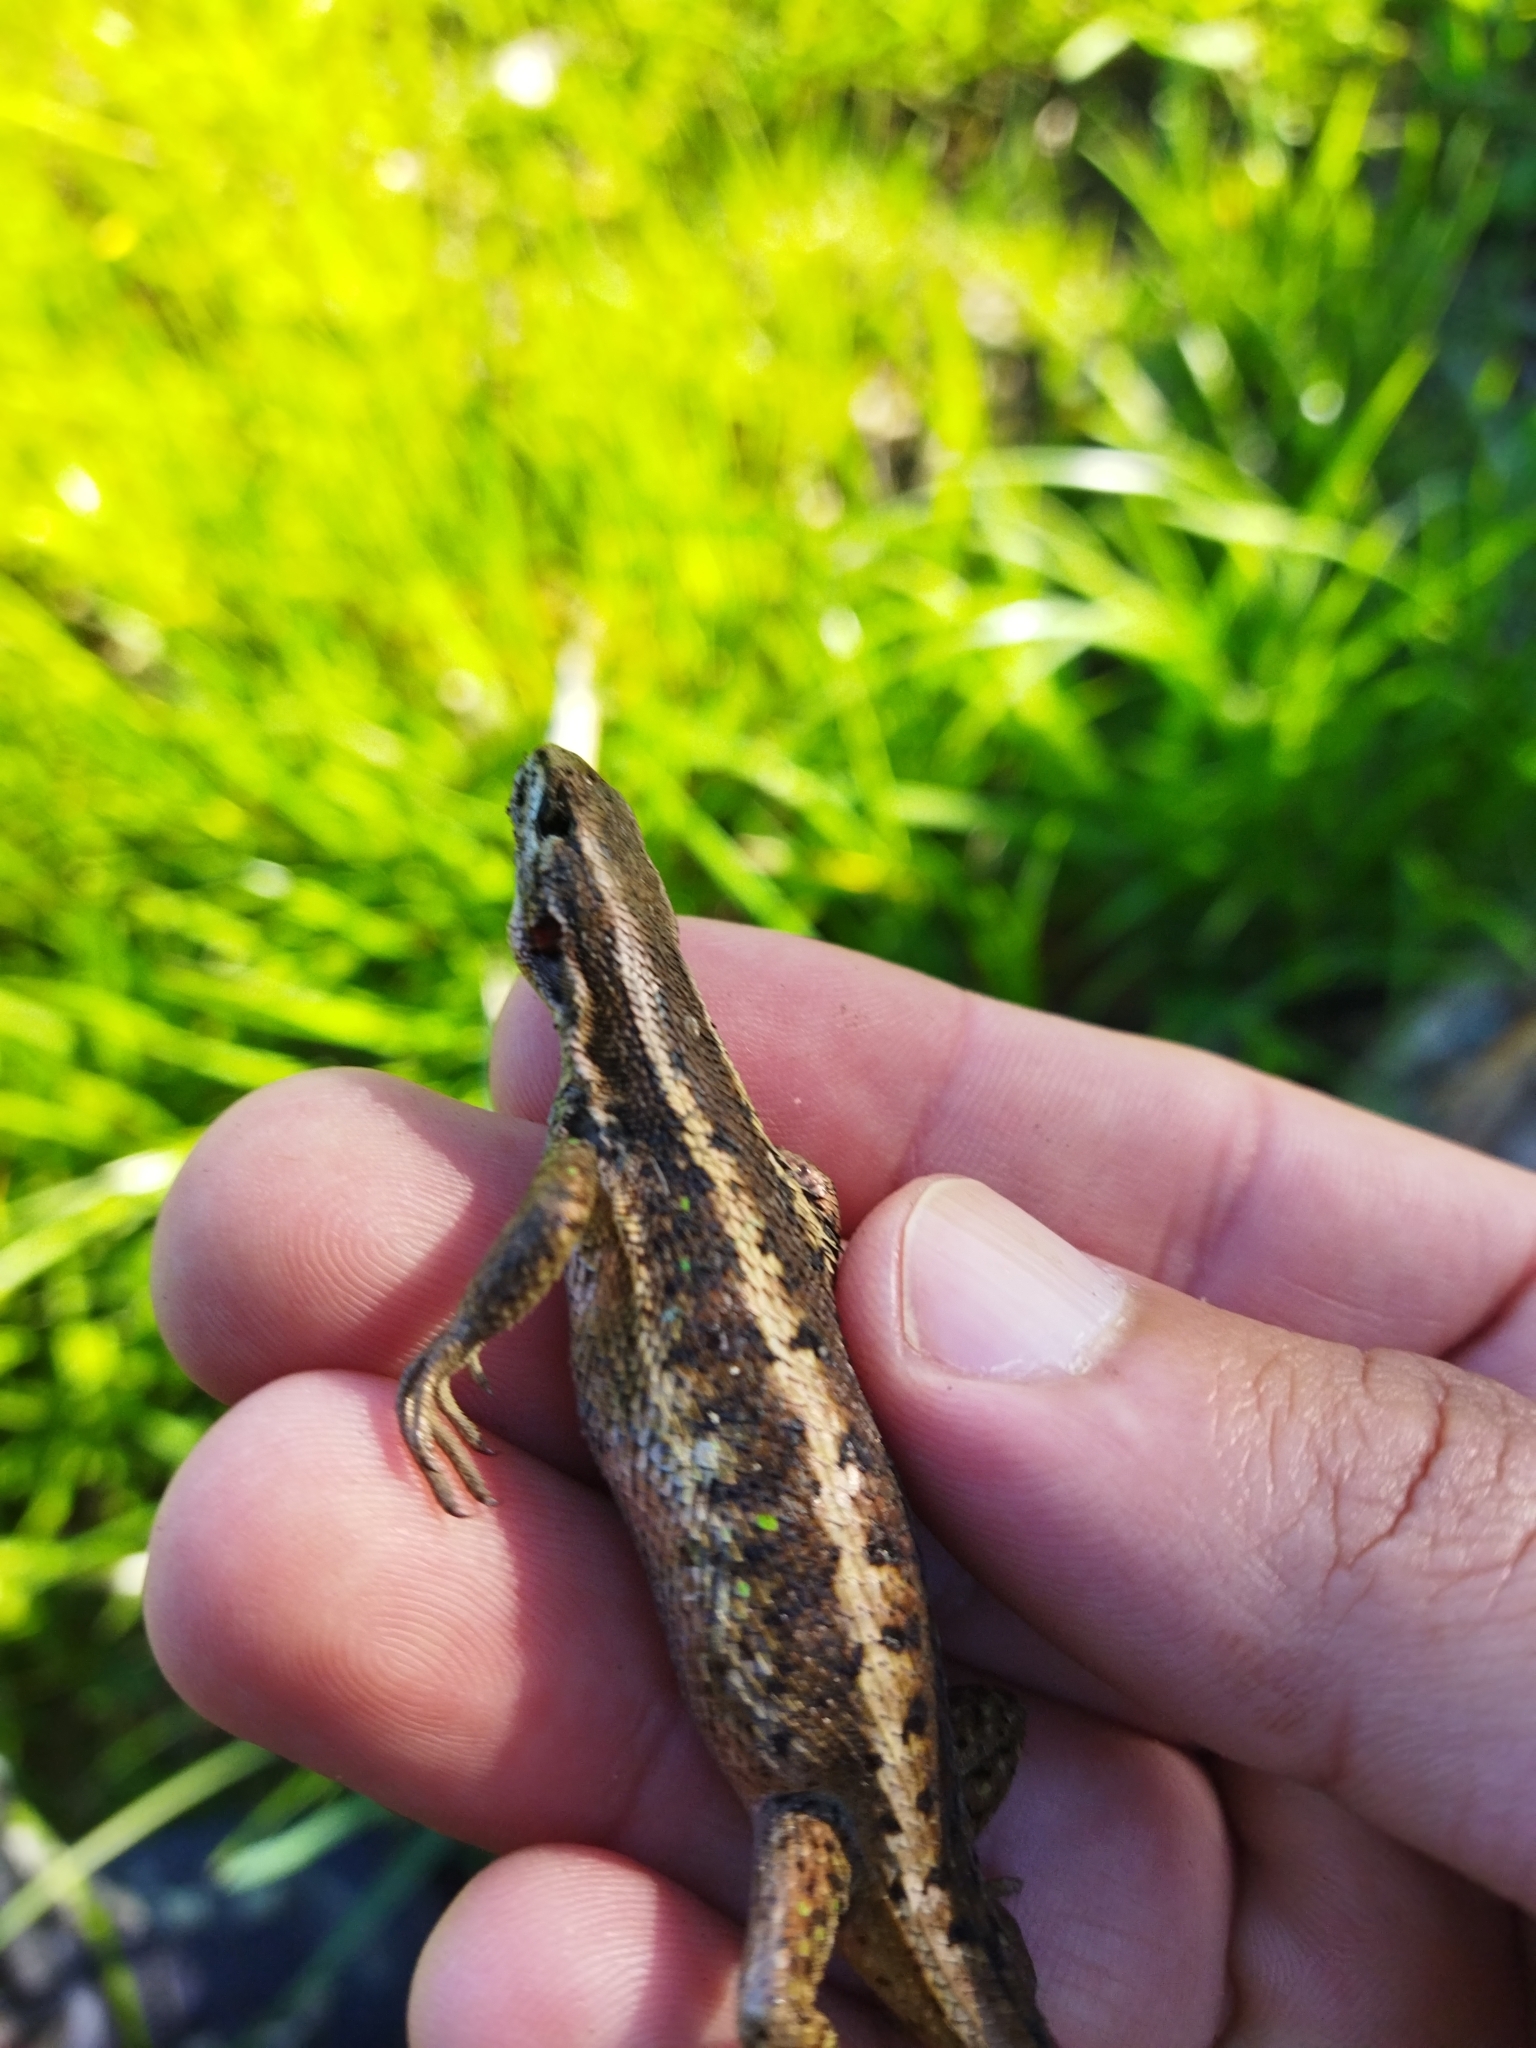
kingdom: Animalia
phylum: Chordata
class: Squamata
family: Liolaemidae
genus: Liolaemus
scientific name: Liolaemus pictus
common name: Painted tree iguana
